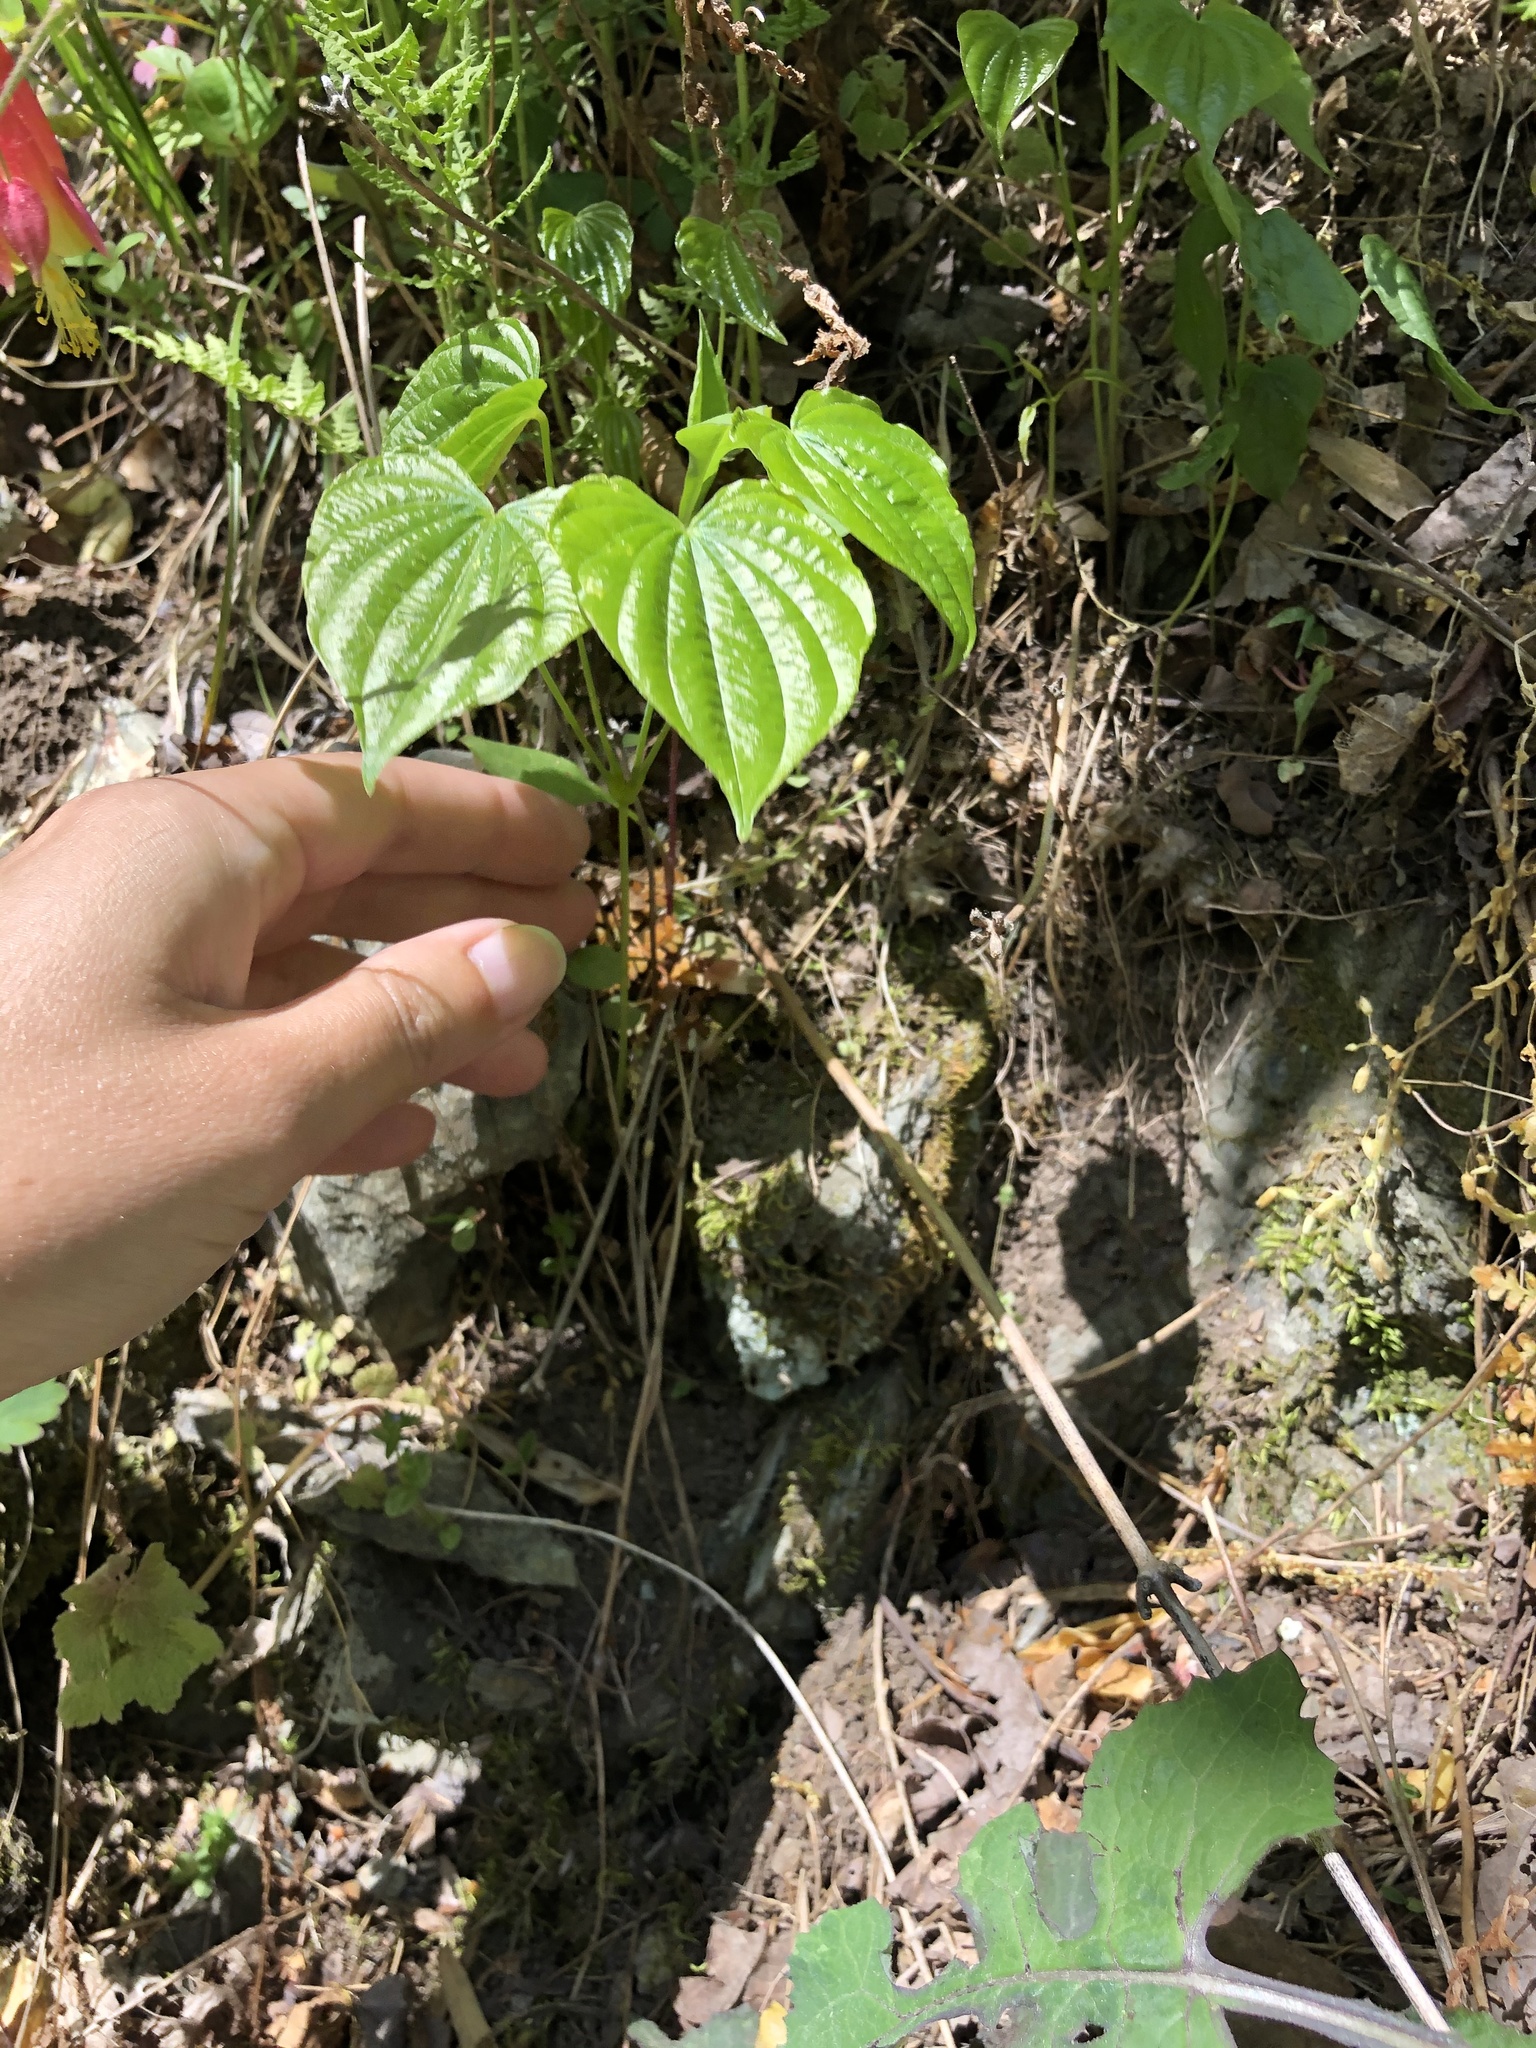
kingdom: Plantae
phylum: Tracheophyta
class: Liliopsida
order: Dioscoreales
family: Dioscoreaceae
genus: Dioscorea
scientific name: Dioscorea villosa
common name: Wild yam
